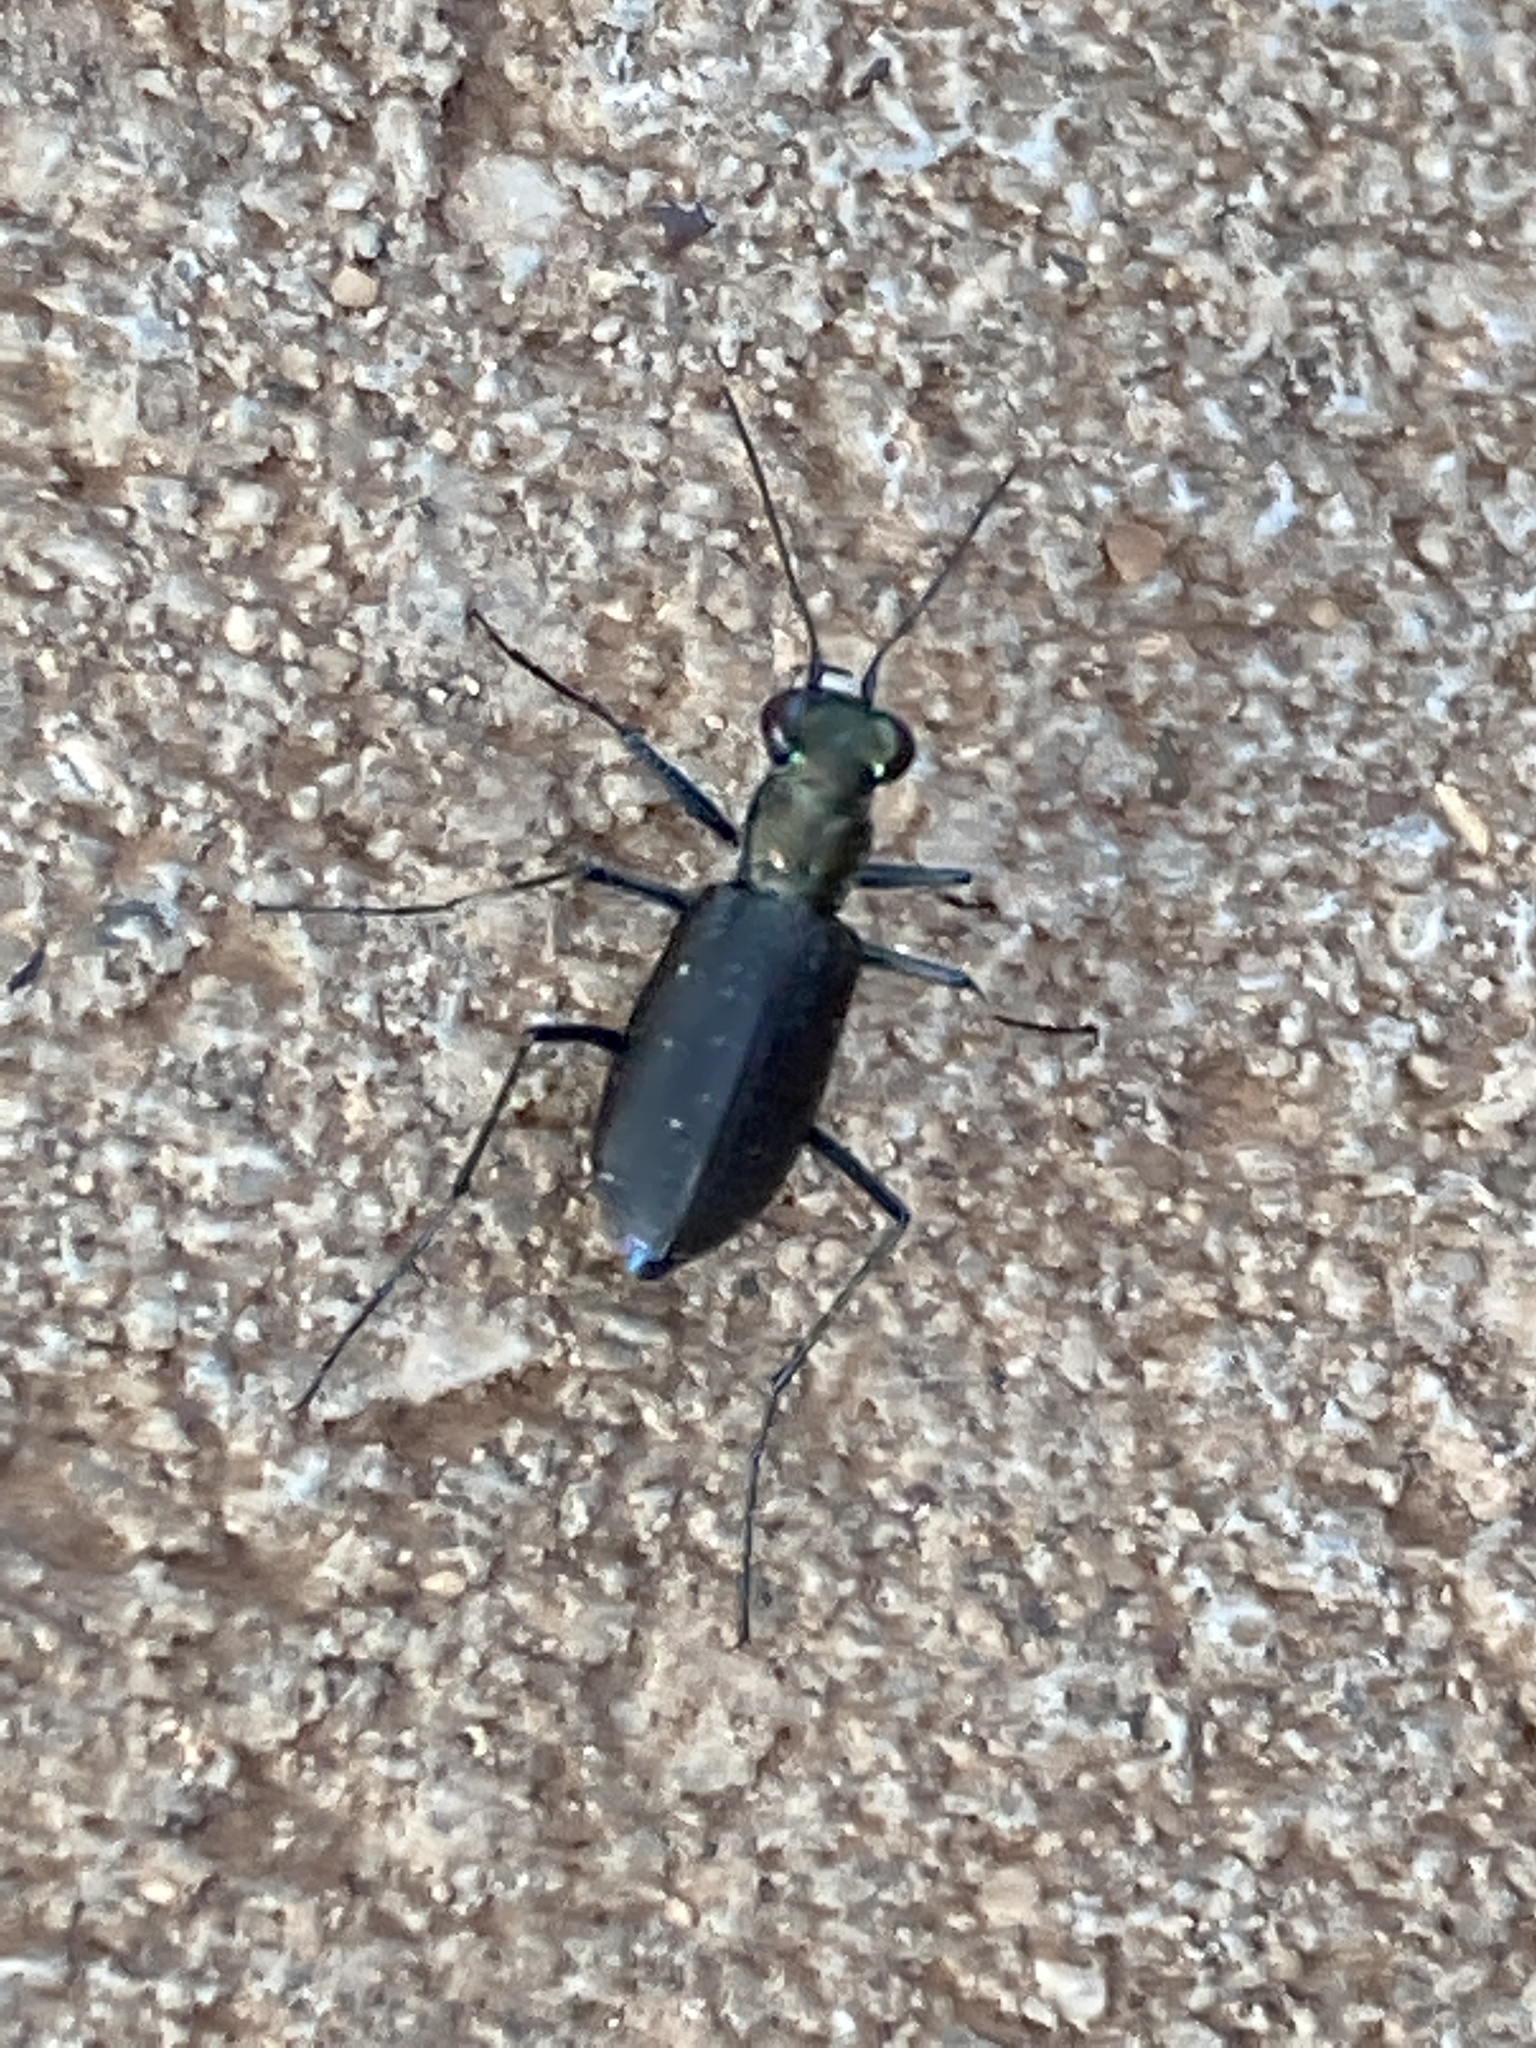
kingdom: Animalia
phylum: Arthropoda
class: Insecta
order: Coleoptera
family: Carabidae
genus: Cicindela
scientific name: Cicindela punctulata
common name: Punctured tiger beetle
